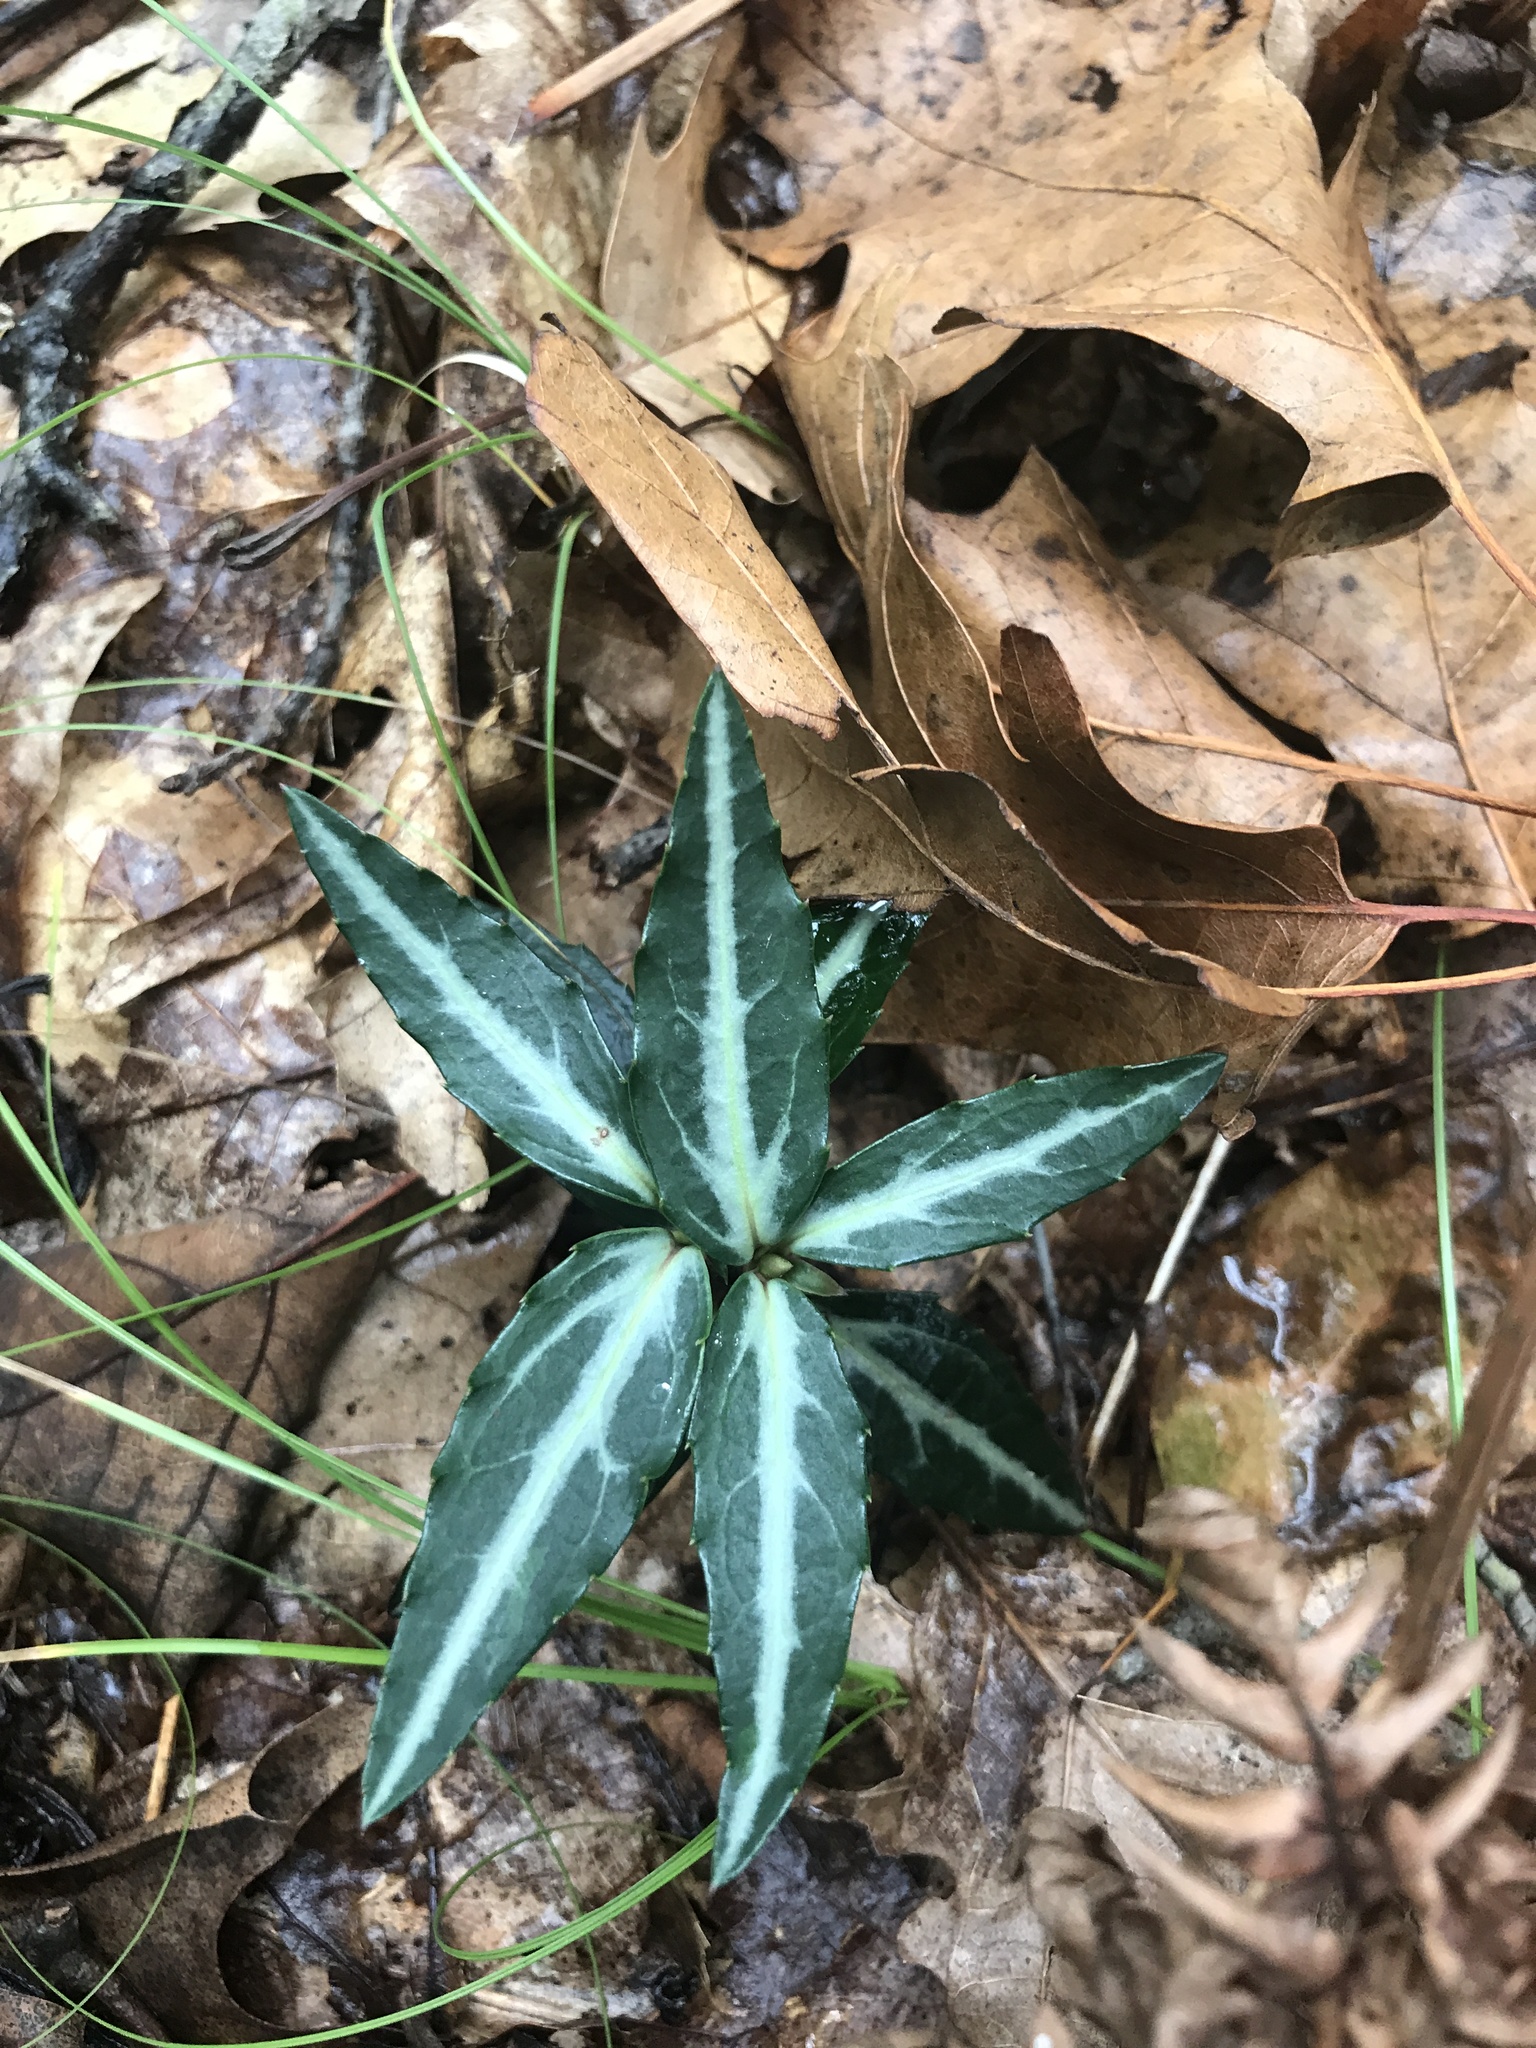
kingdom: Plantae
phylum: Tracheophyta
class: Magnoliopsida
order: Ericales
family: Ericaceae
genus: Chimaphila
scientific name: Chimaphila maculata
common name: Spotted pipsissewa
